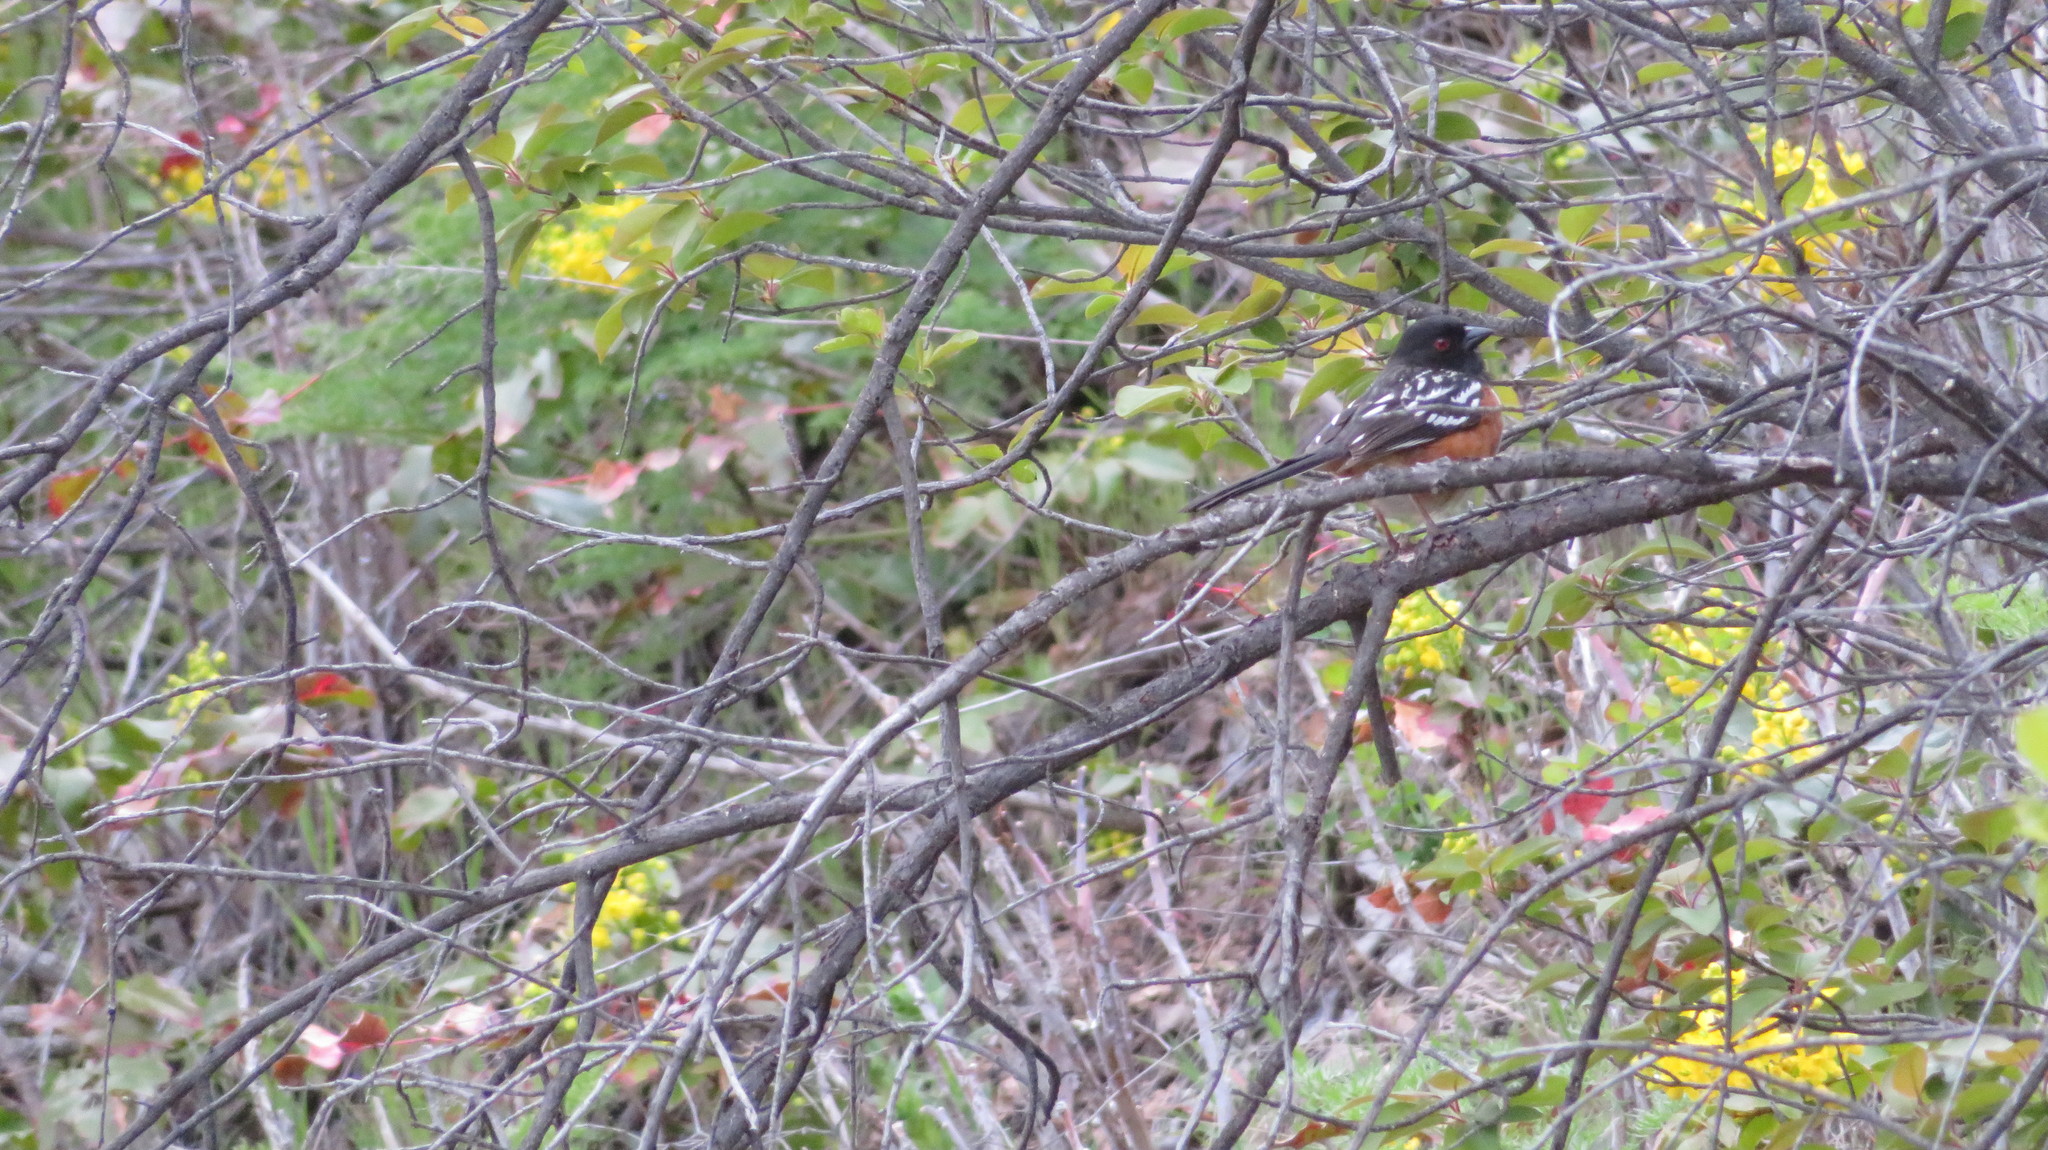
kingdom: Animalia
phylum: Chordata
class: Aves
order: Passeriformes
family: Passerellidae
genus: Pipilo
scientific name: Pipilo maculatus
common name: Spotted towhee
